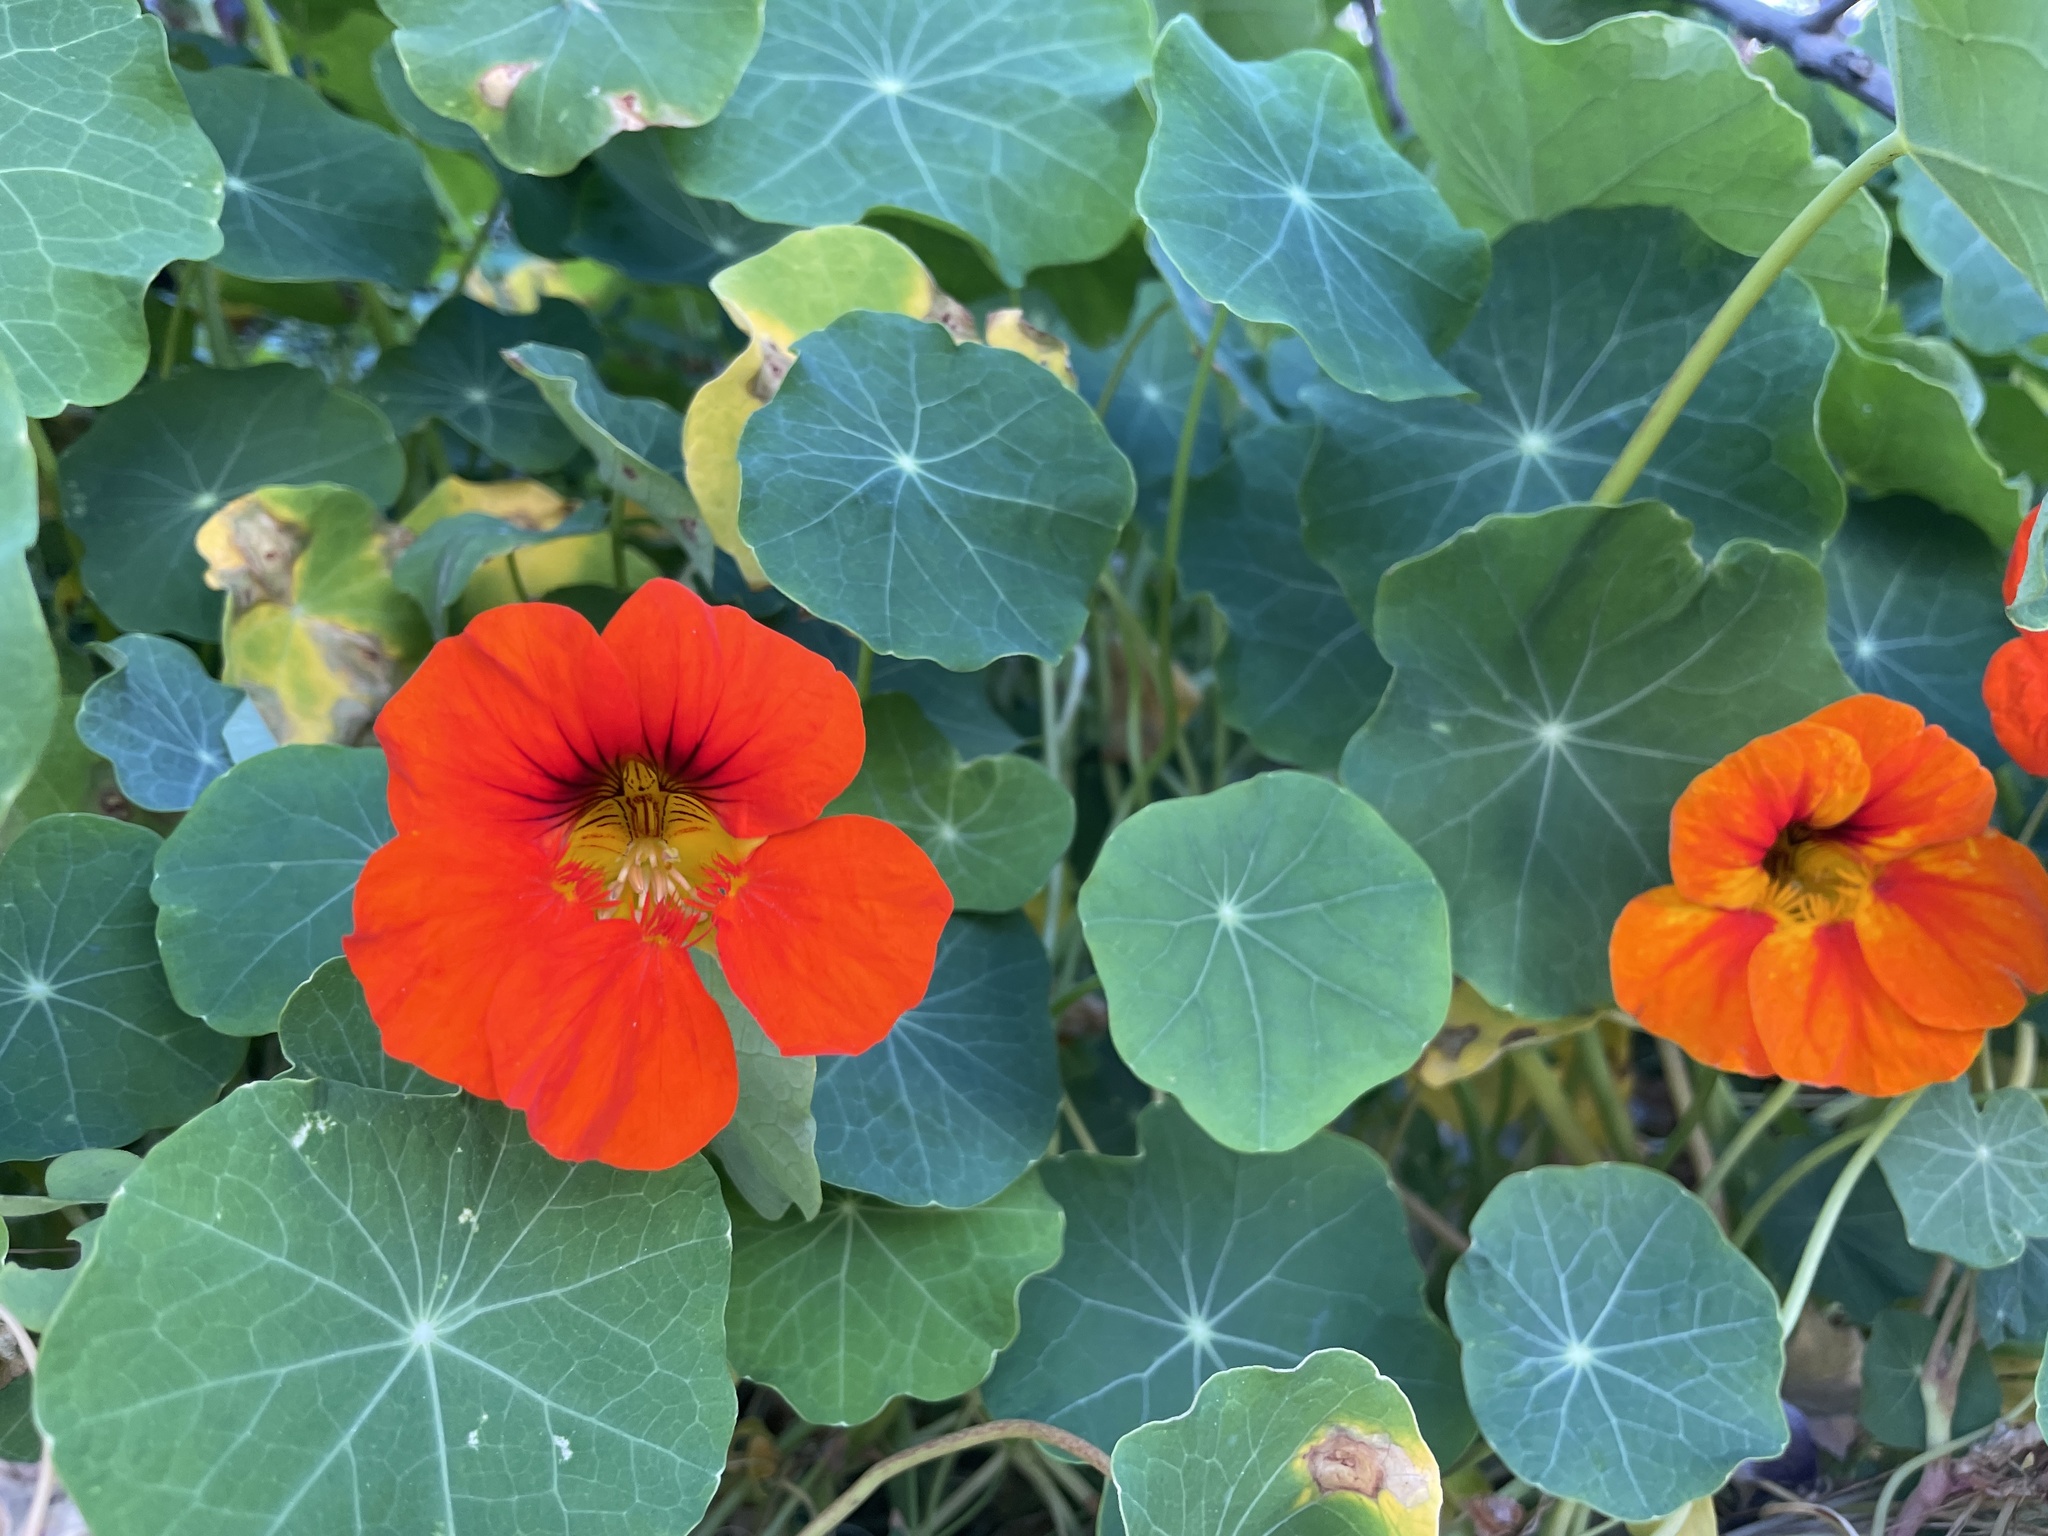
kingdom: Plantae
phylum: Tracheophyta
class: Magnoliopsida
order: Brassicales
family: Tropaeolaceae
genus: Tropaeolum
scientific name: Tropaeolum majus
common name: Nasturtium
